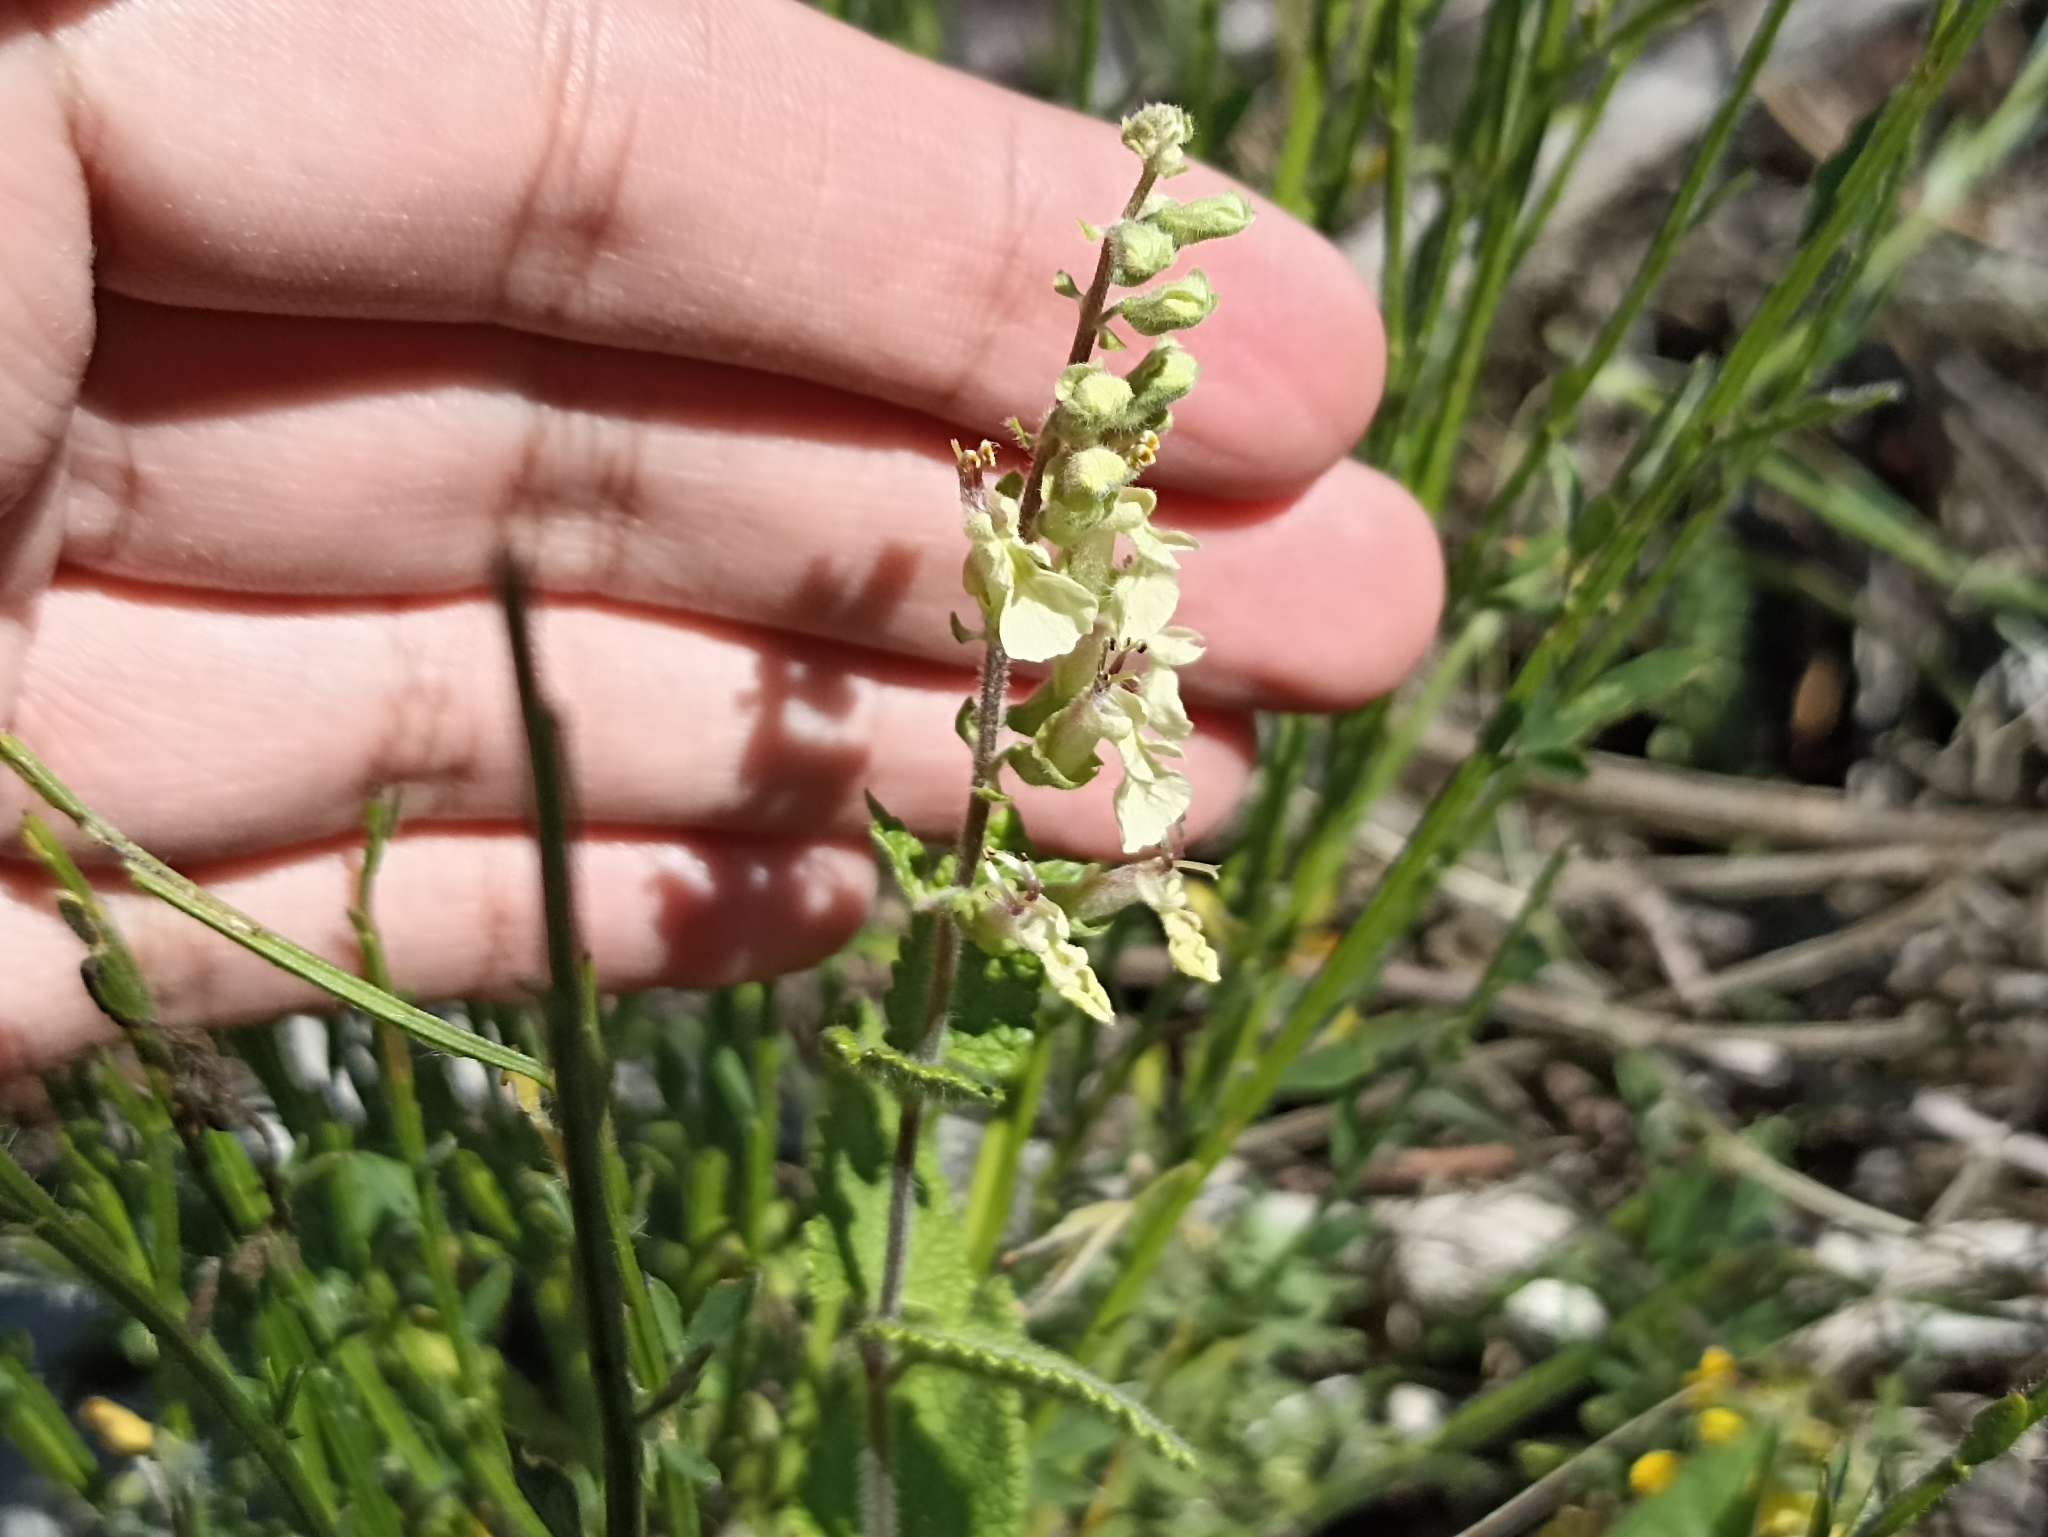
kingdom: Plantae
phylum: Tracheophyta
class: Magnoliopsida
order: Lamiales
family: Lamiaceae
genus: Teucrium
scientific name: Teucrium scorodonia
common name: Woodland germander
